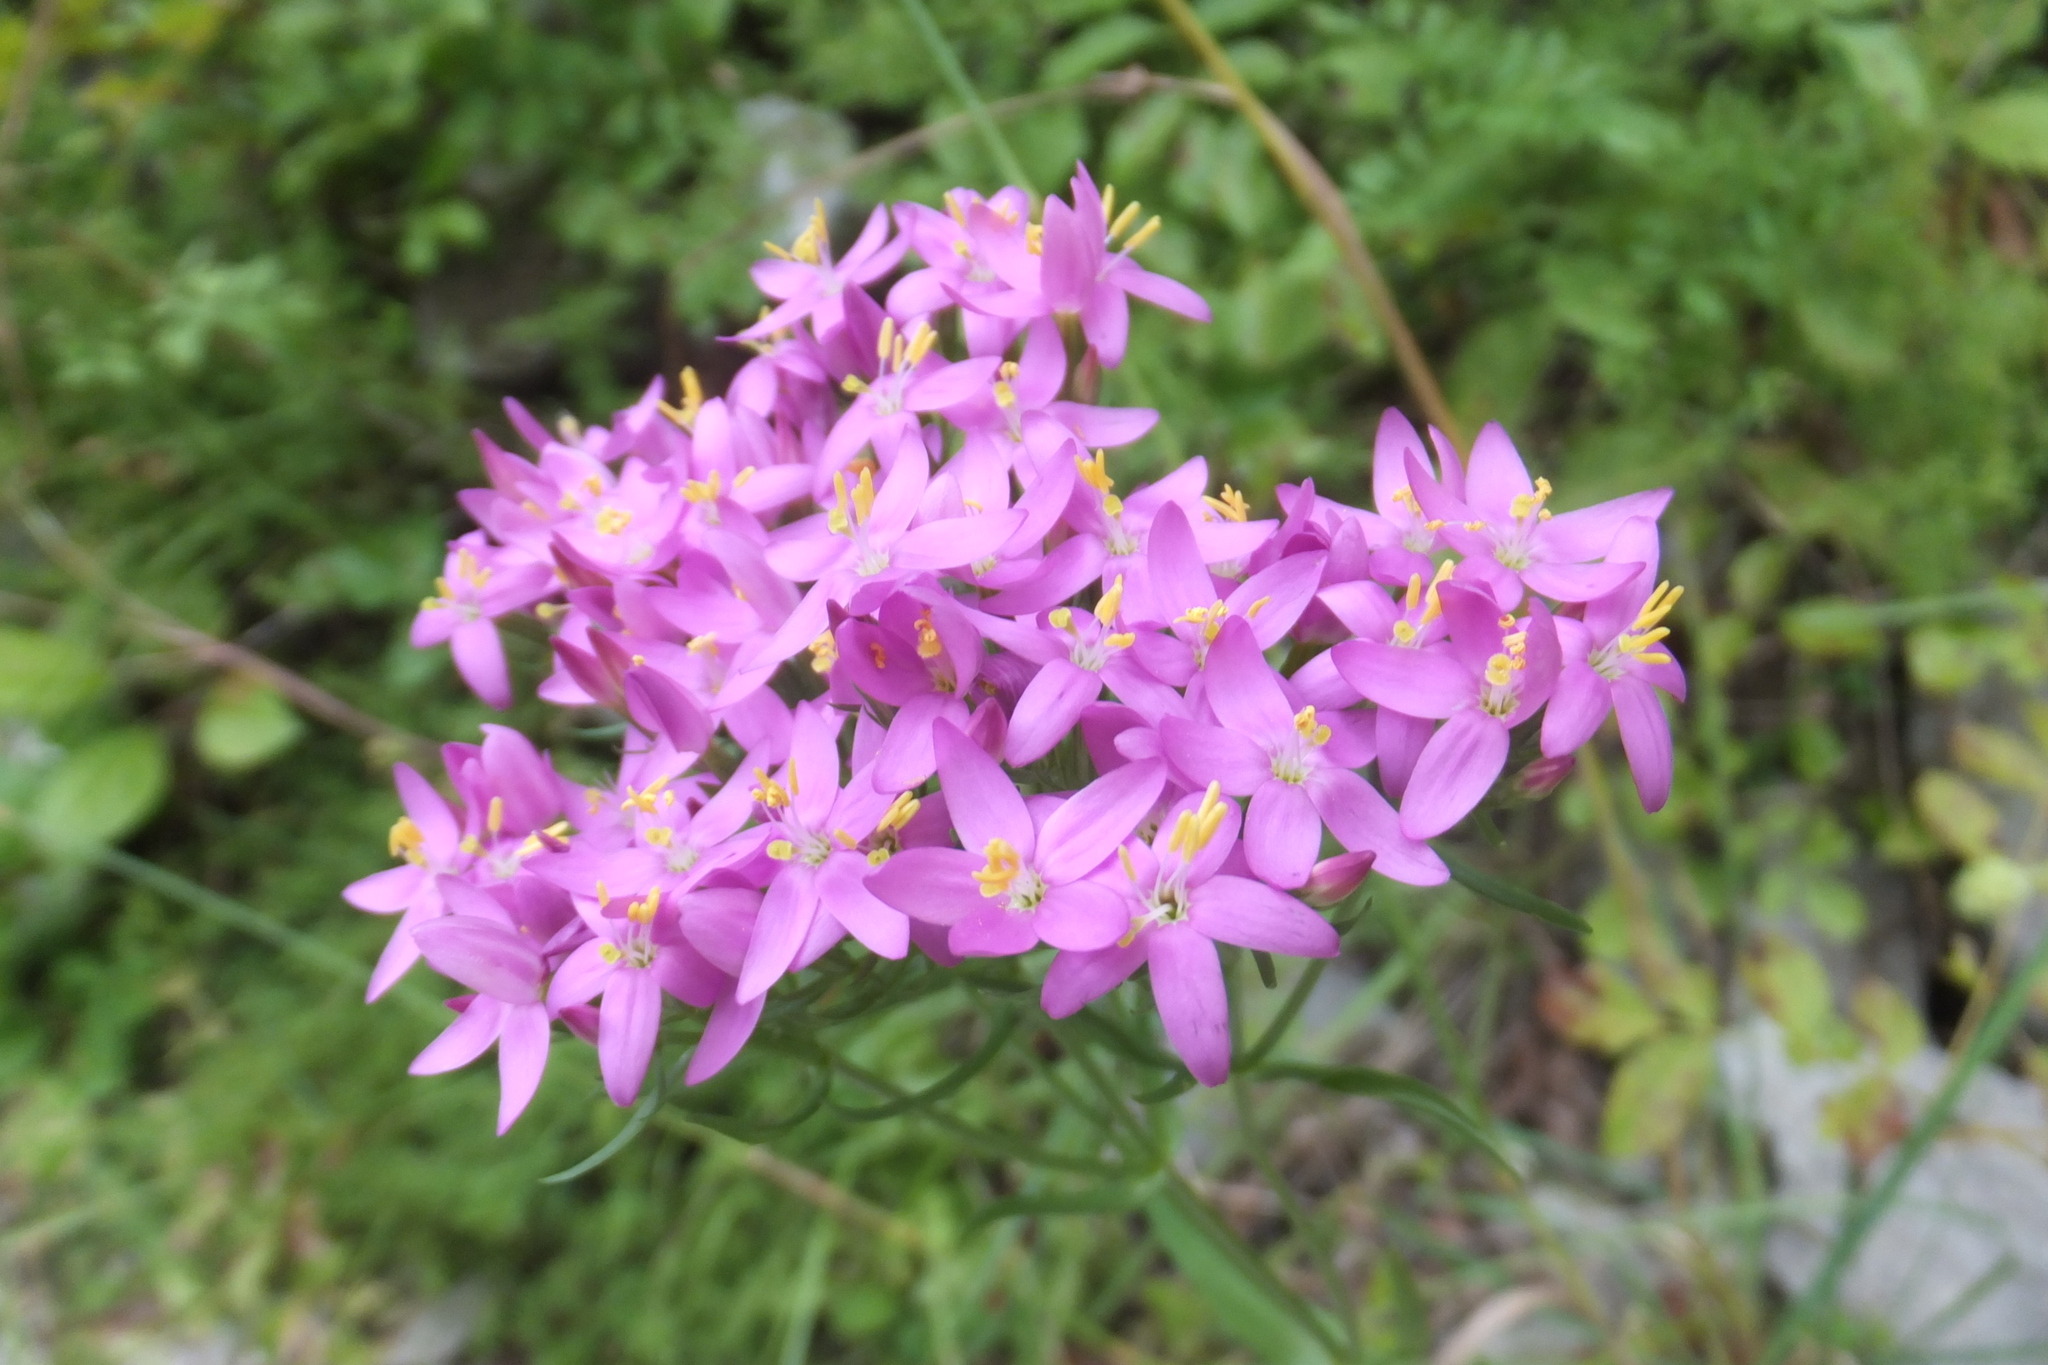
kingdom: Plantae
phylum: Tracheophyta
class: Magnoliopsida
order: Gentianales
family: Gentianaceae
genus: Centaurium
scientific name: Centaurium erythraea
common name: Common centaury
